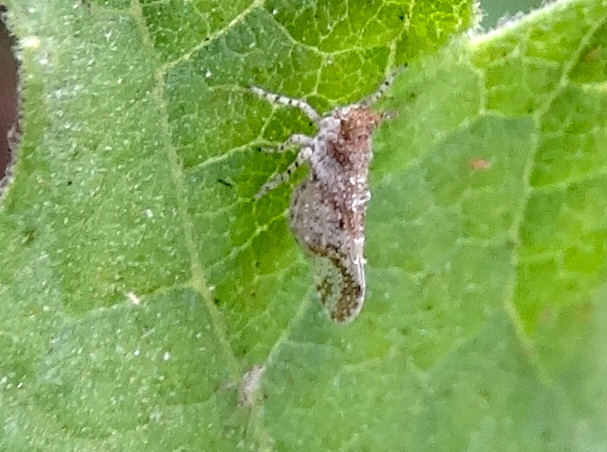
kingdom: Animalia
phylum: Arthropoda
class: Insecta
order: Hemiptera
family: Delphacidae
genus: Stobaera
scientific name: Stobaera
